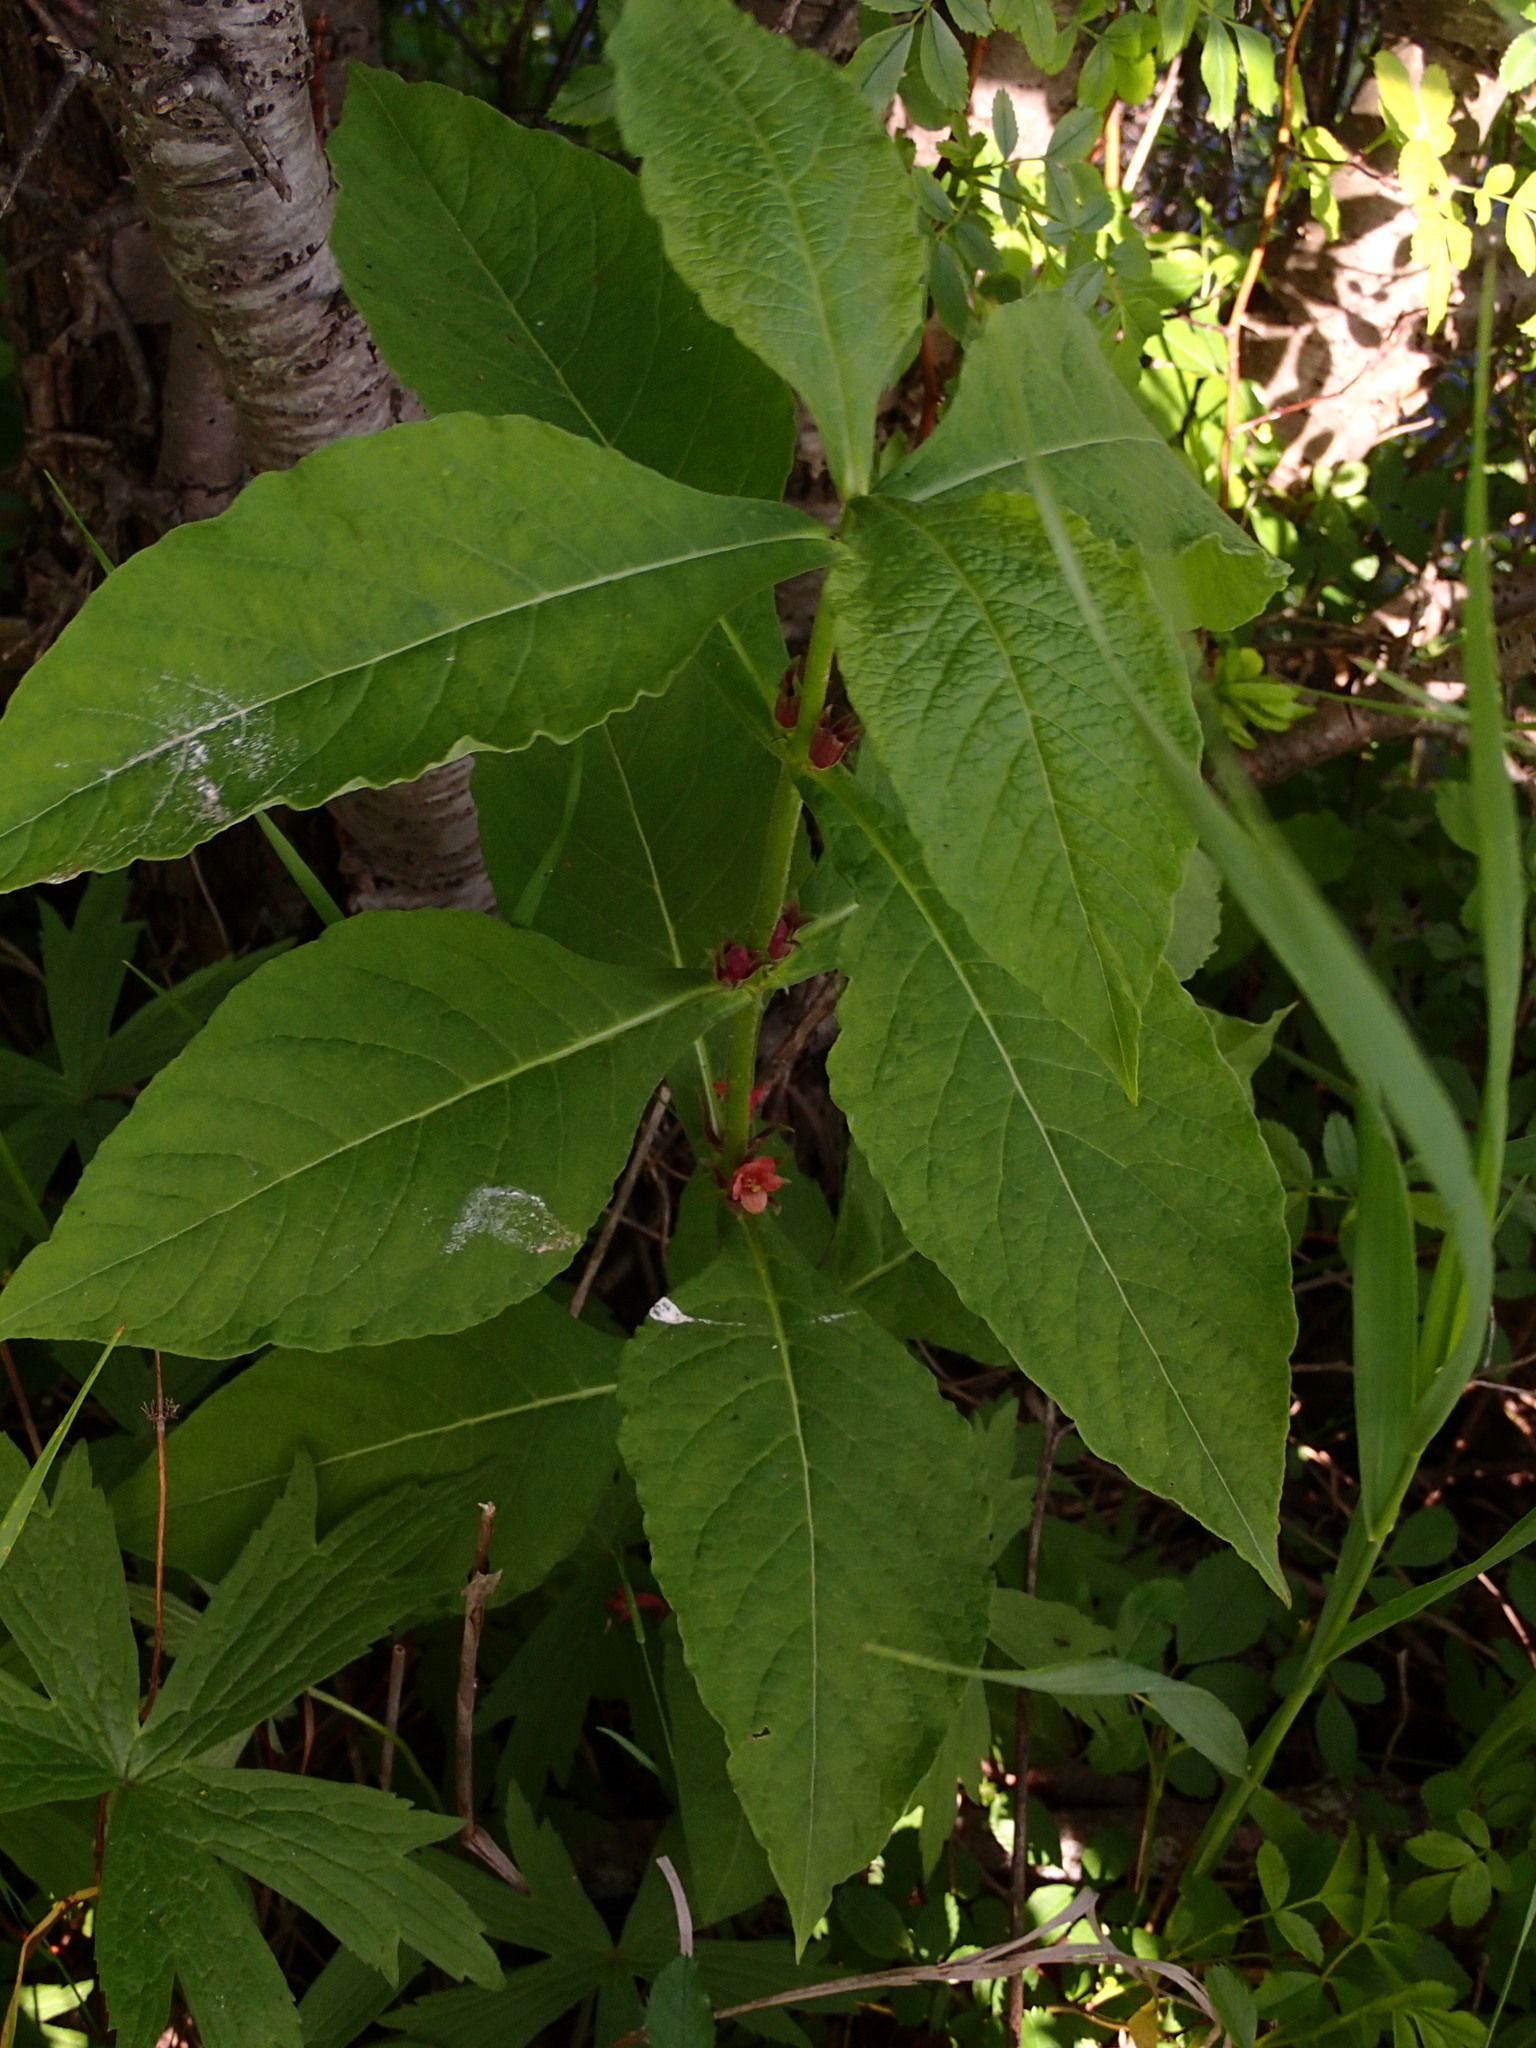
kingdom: Plantae
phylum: Tracheophyta
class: Magnoliopsida
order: Dipsacales
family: Caprifoliaceae
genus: Triosteum
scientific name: Triosteum aurantiacum
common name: Coffee tinker's-weed
